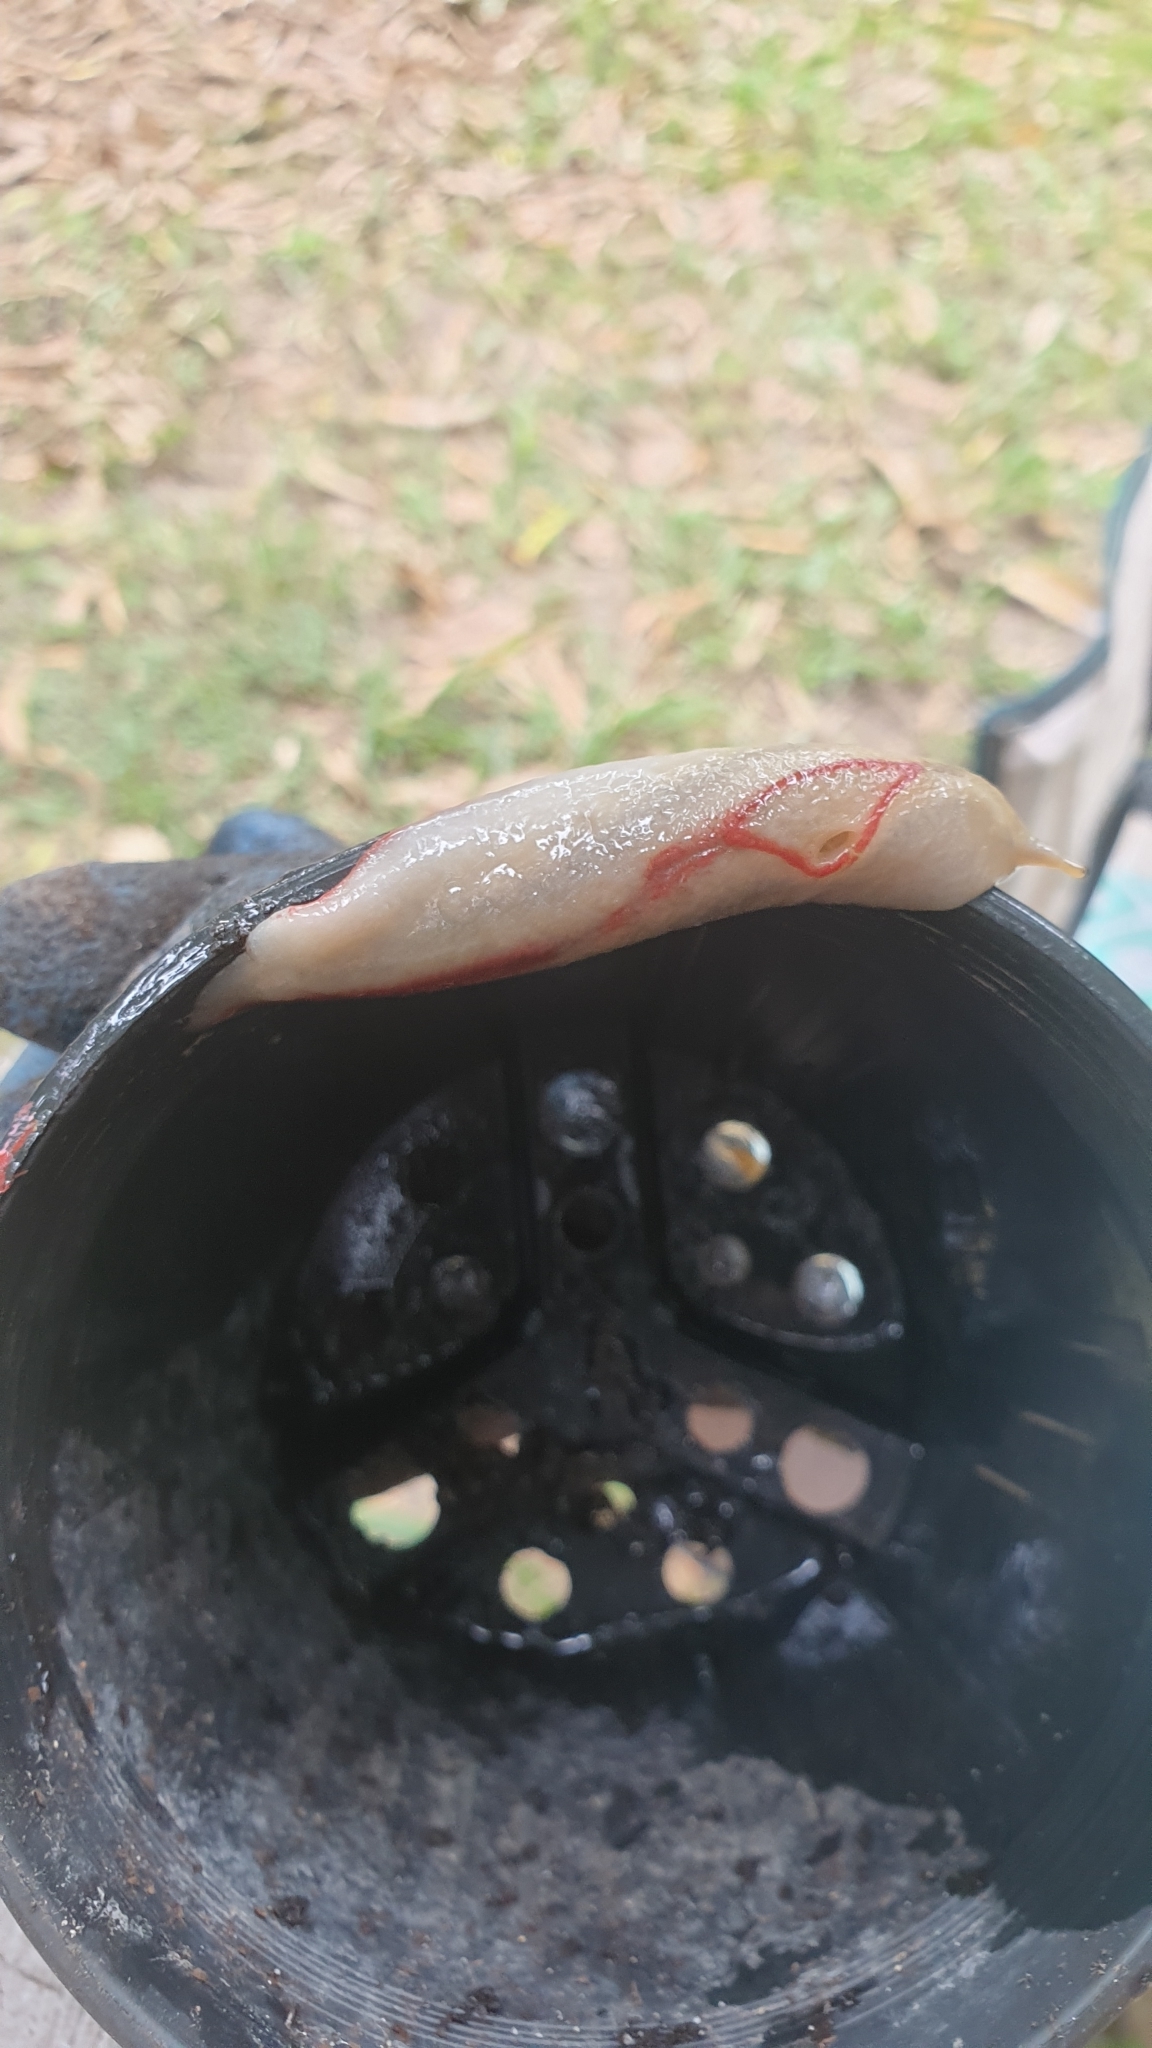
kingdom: Animalia
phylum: Mollusca
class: Gastropoda
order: Stylommatophora
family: Athoracophoridae
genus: Triboniophorus
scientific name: Triboniophorus graeffei
